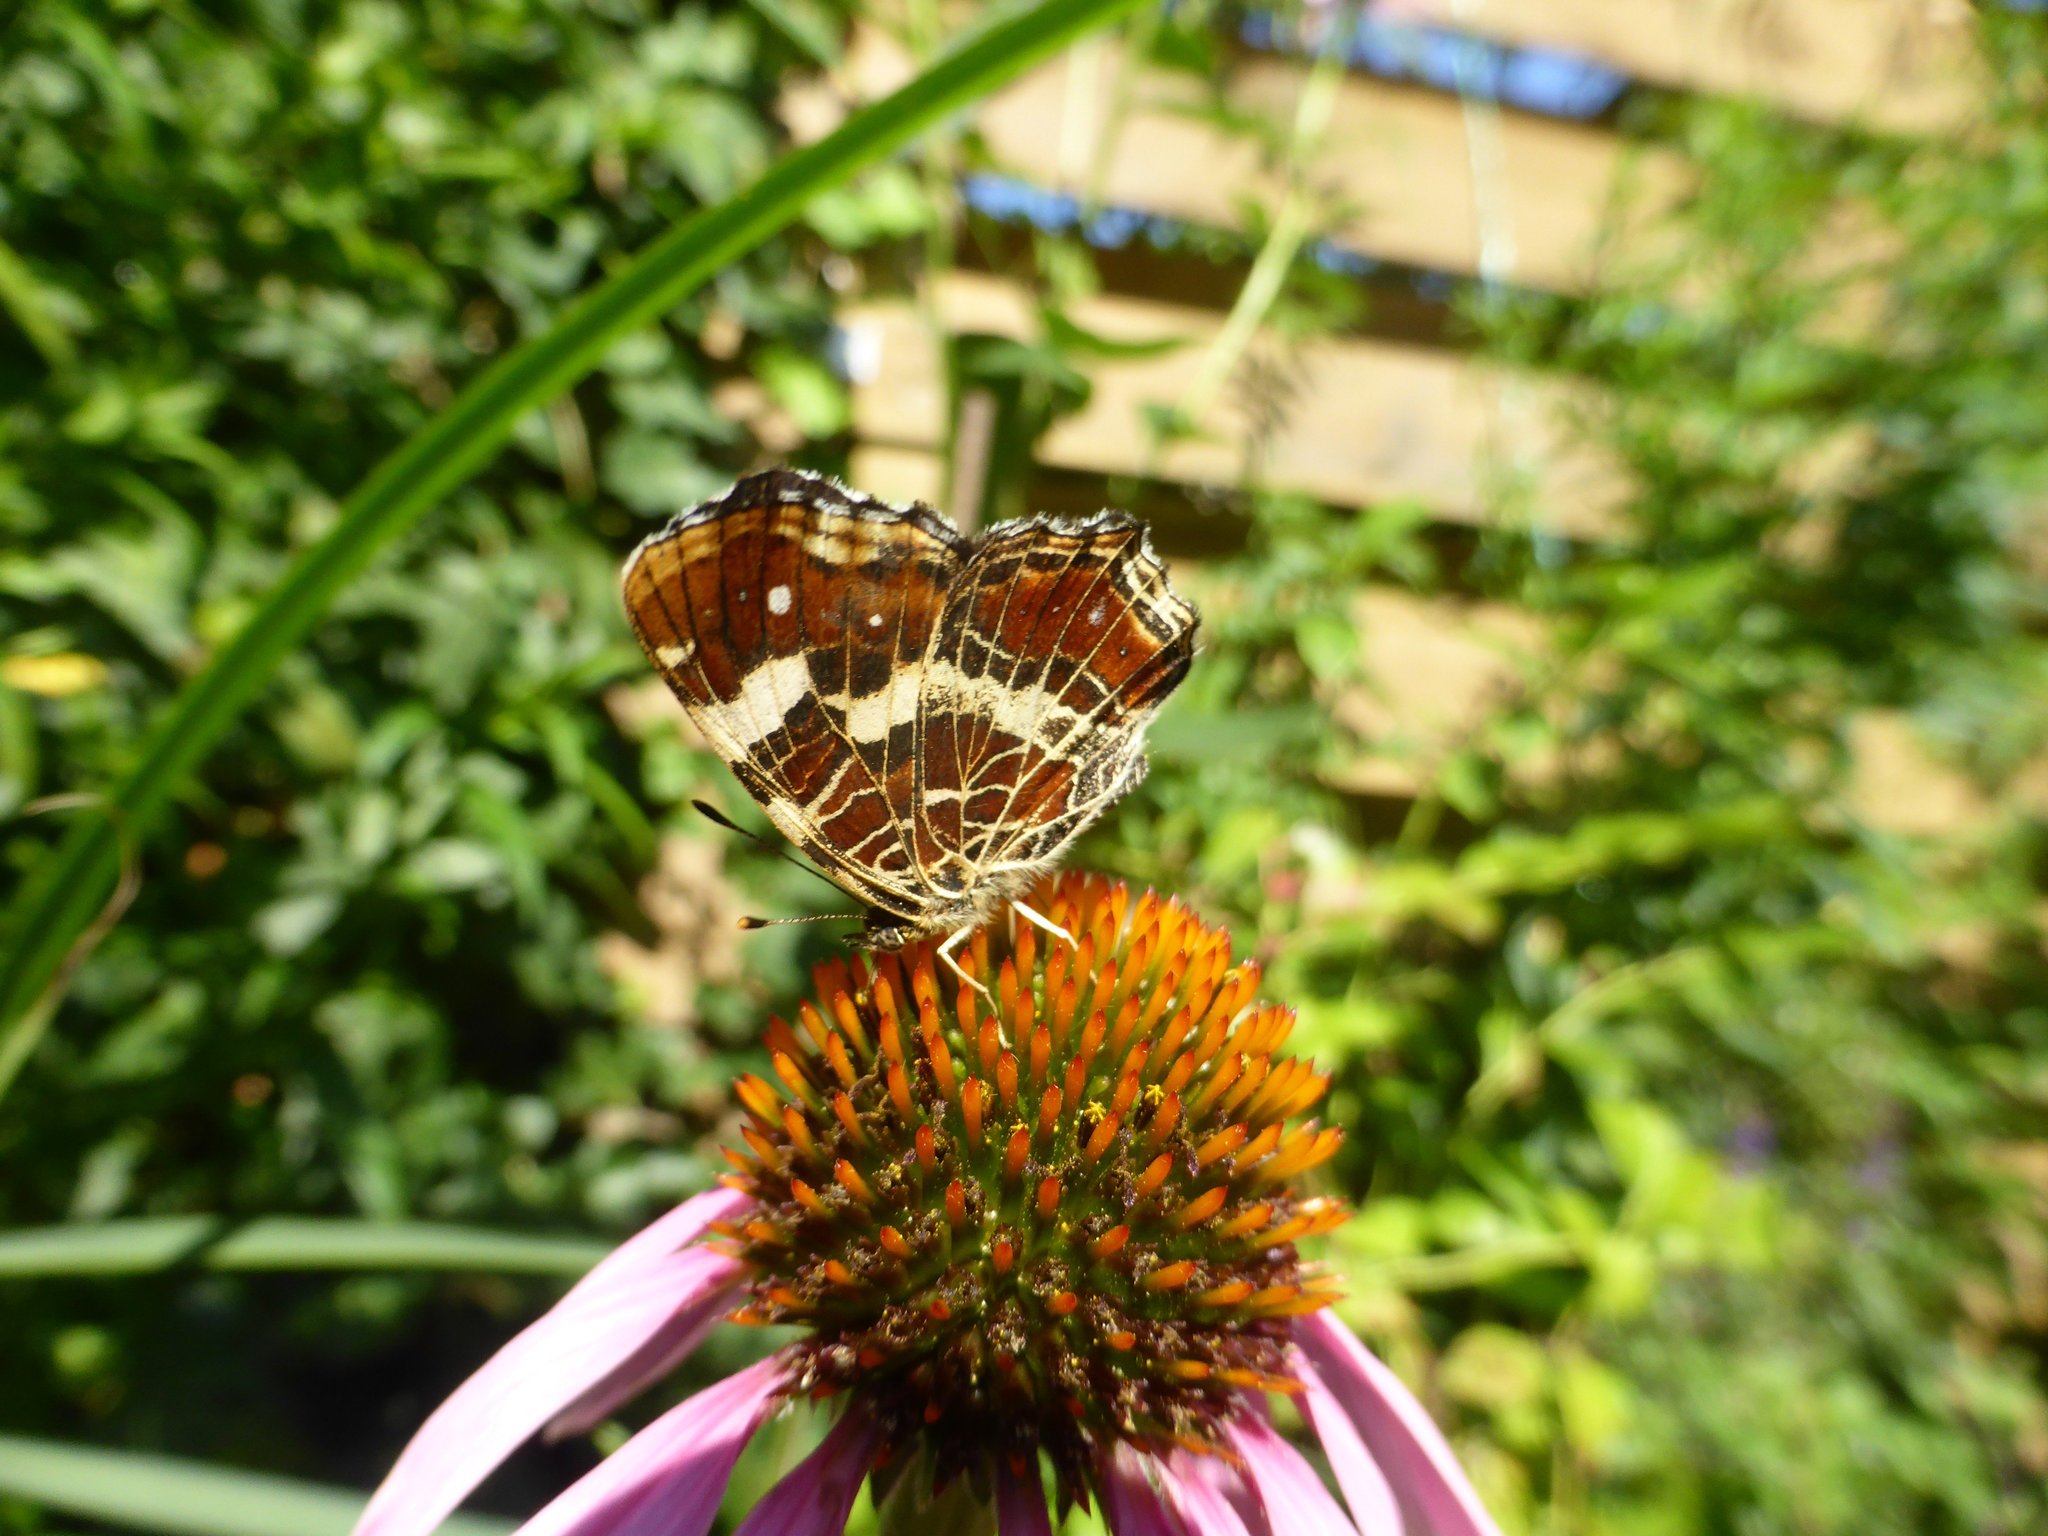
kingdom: Animalia
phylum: Arthropoda
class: Insecta
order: Lepidoptera
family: Nymphalidae
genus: Araschnia
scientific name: Araschnia levana
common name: Map butterfly
